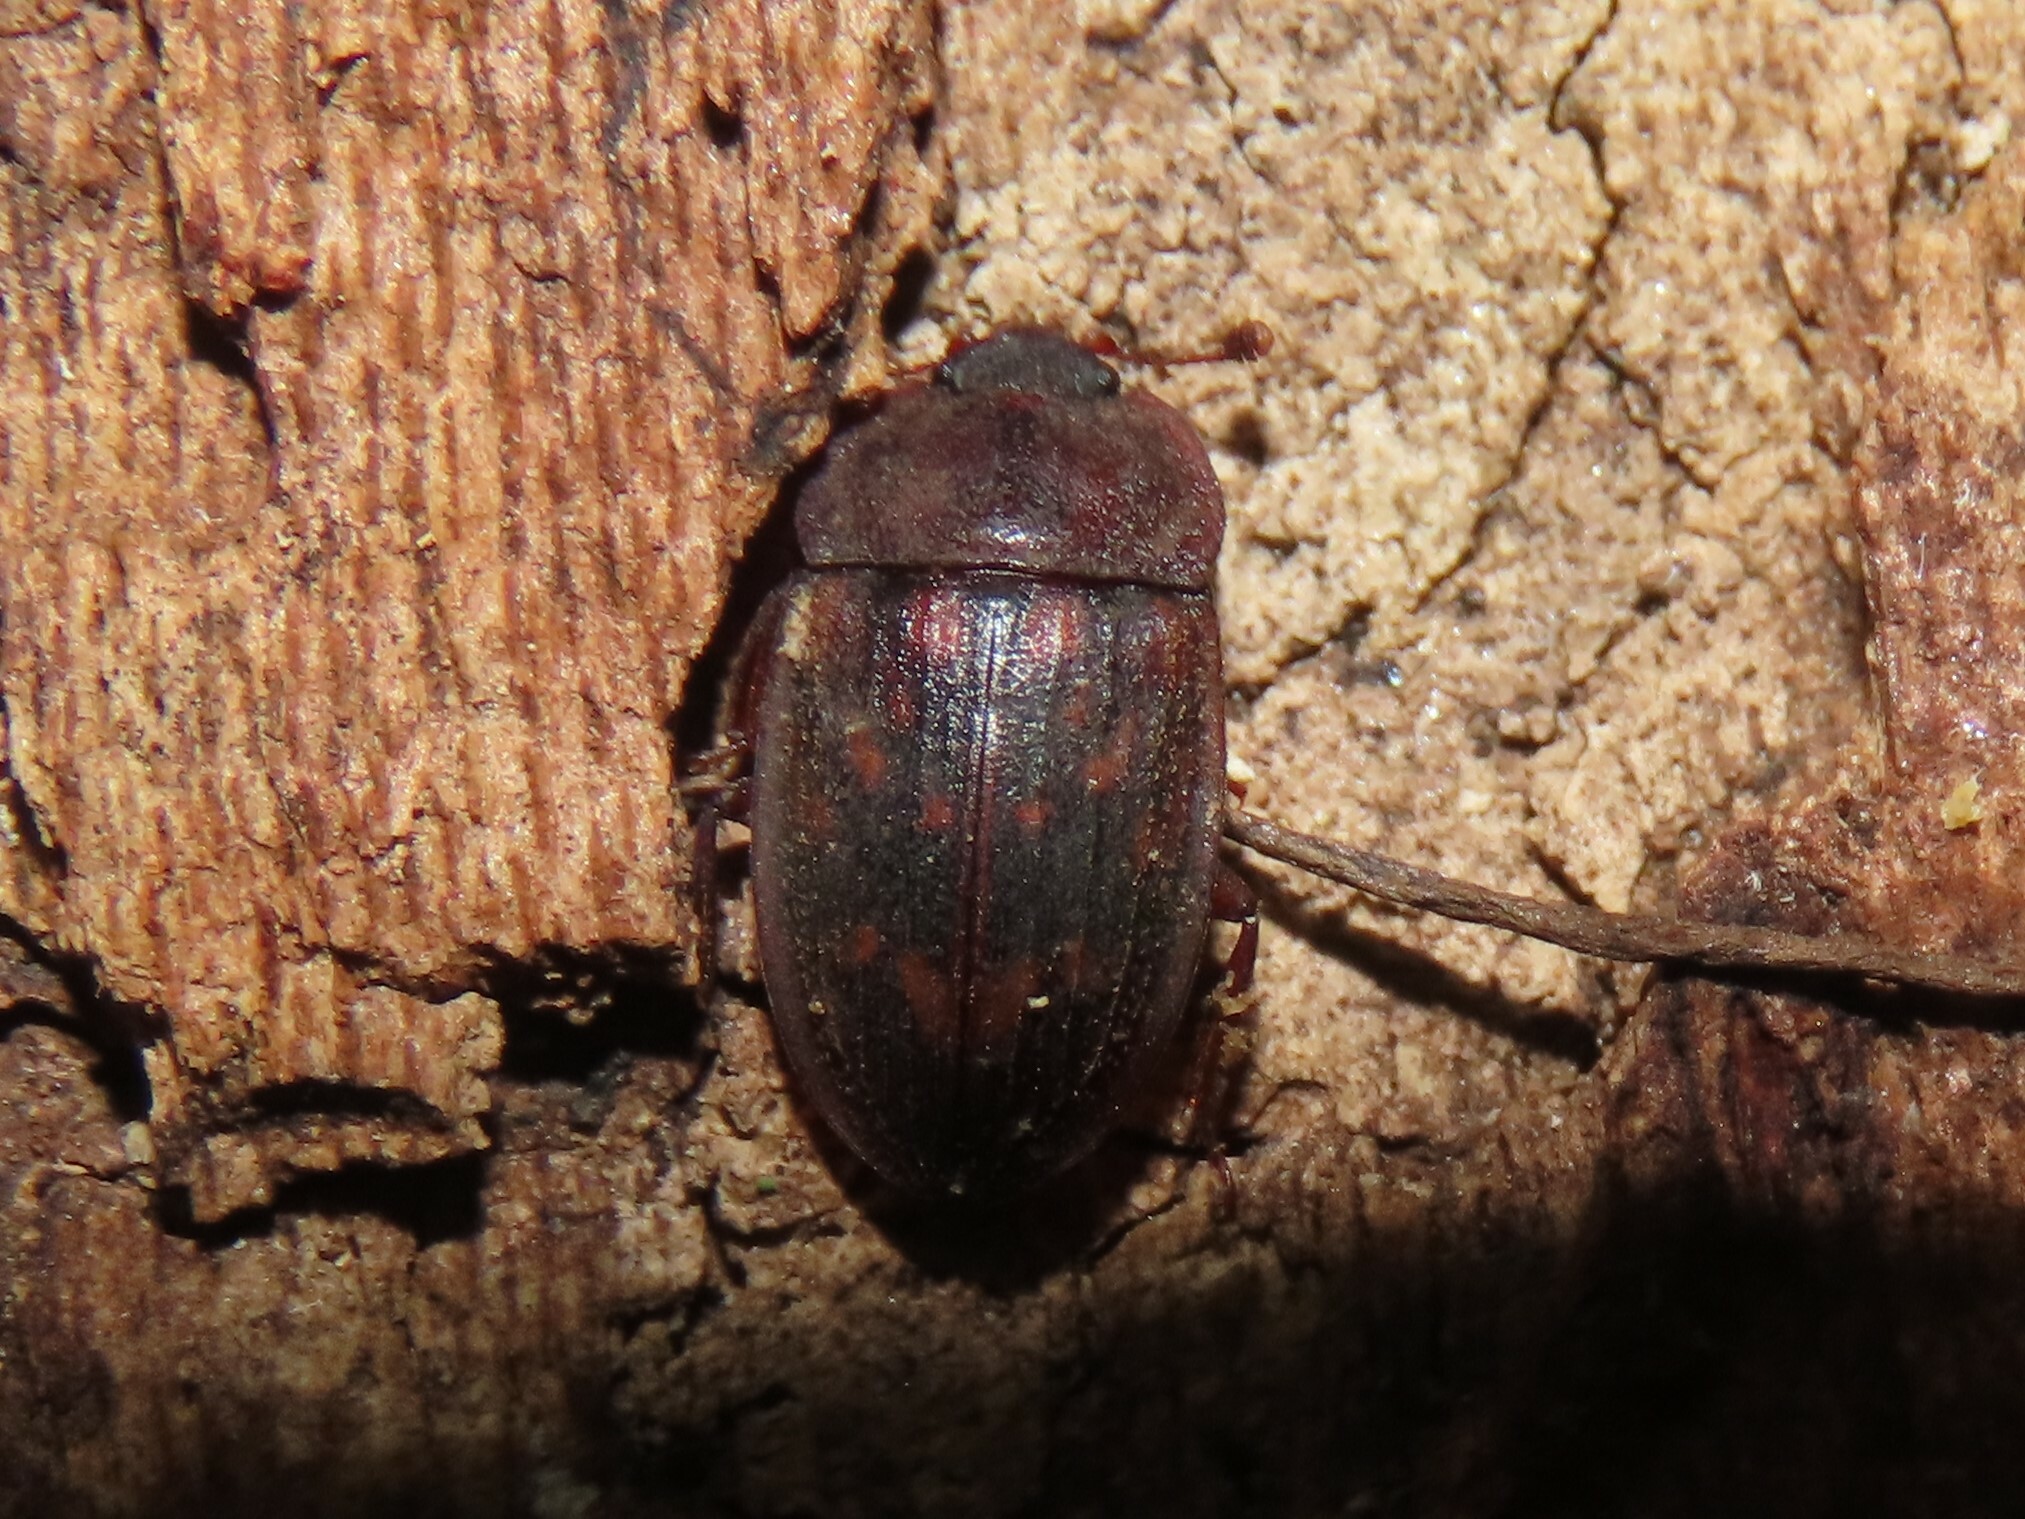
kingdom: Animalia
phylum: Arthropoda
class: Insecta
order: Coleoptera
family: Nitidulidae
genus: Phenolia
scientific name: Phenolia grossa
